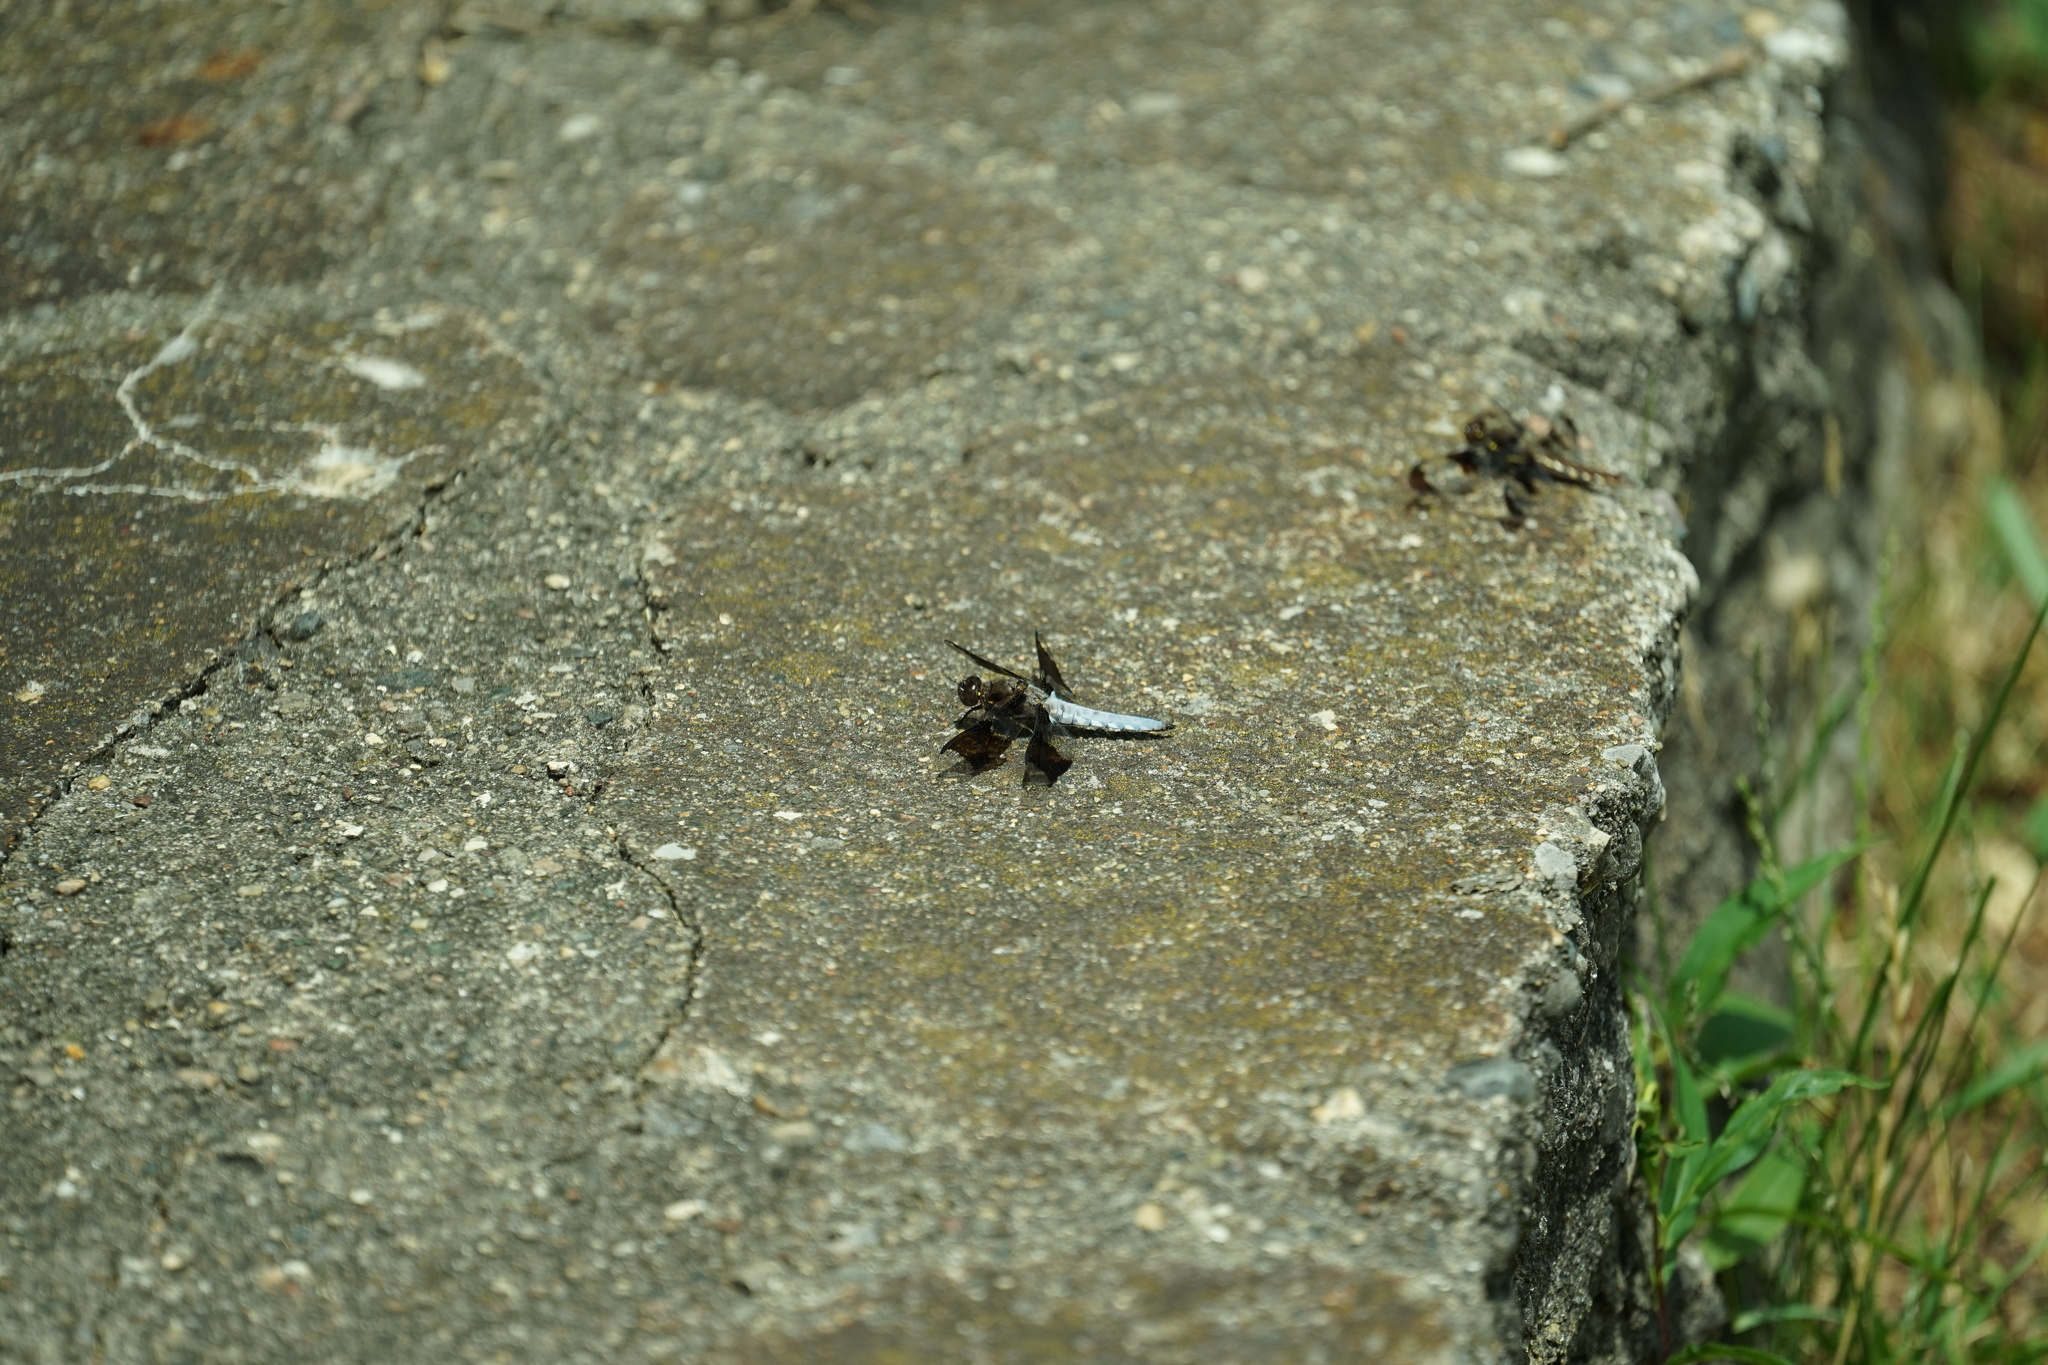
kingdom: Animalia
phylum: Arthropoda
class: Insecta
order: Odonata
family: Libellulidae
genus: Plathemis
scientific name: Plathemis lydia
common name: Common whitetail
